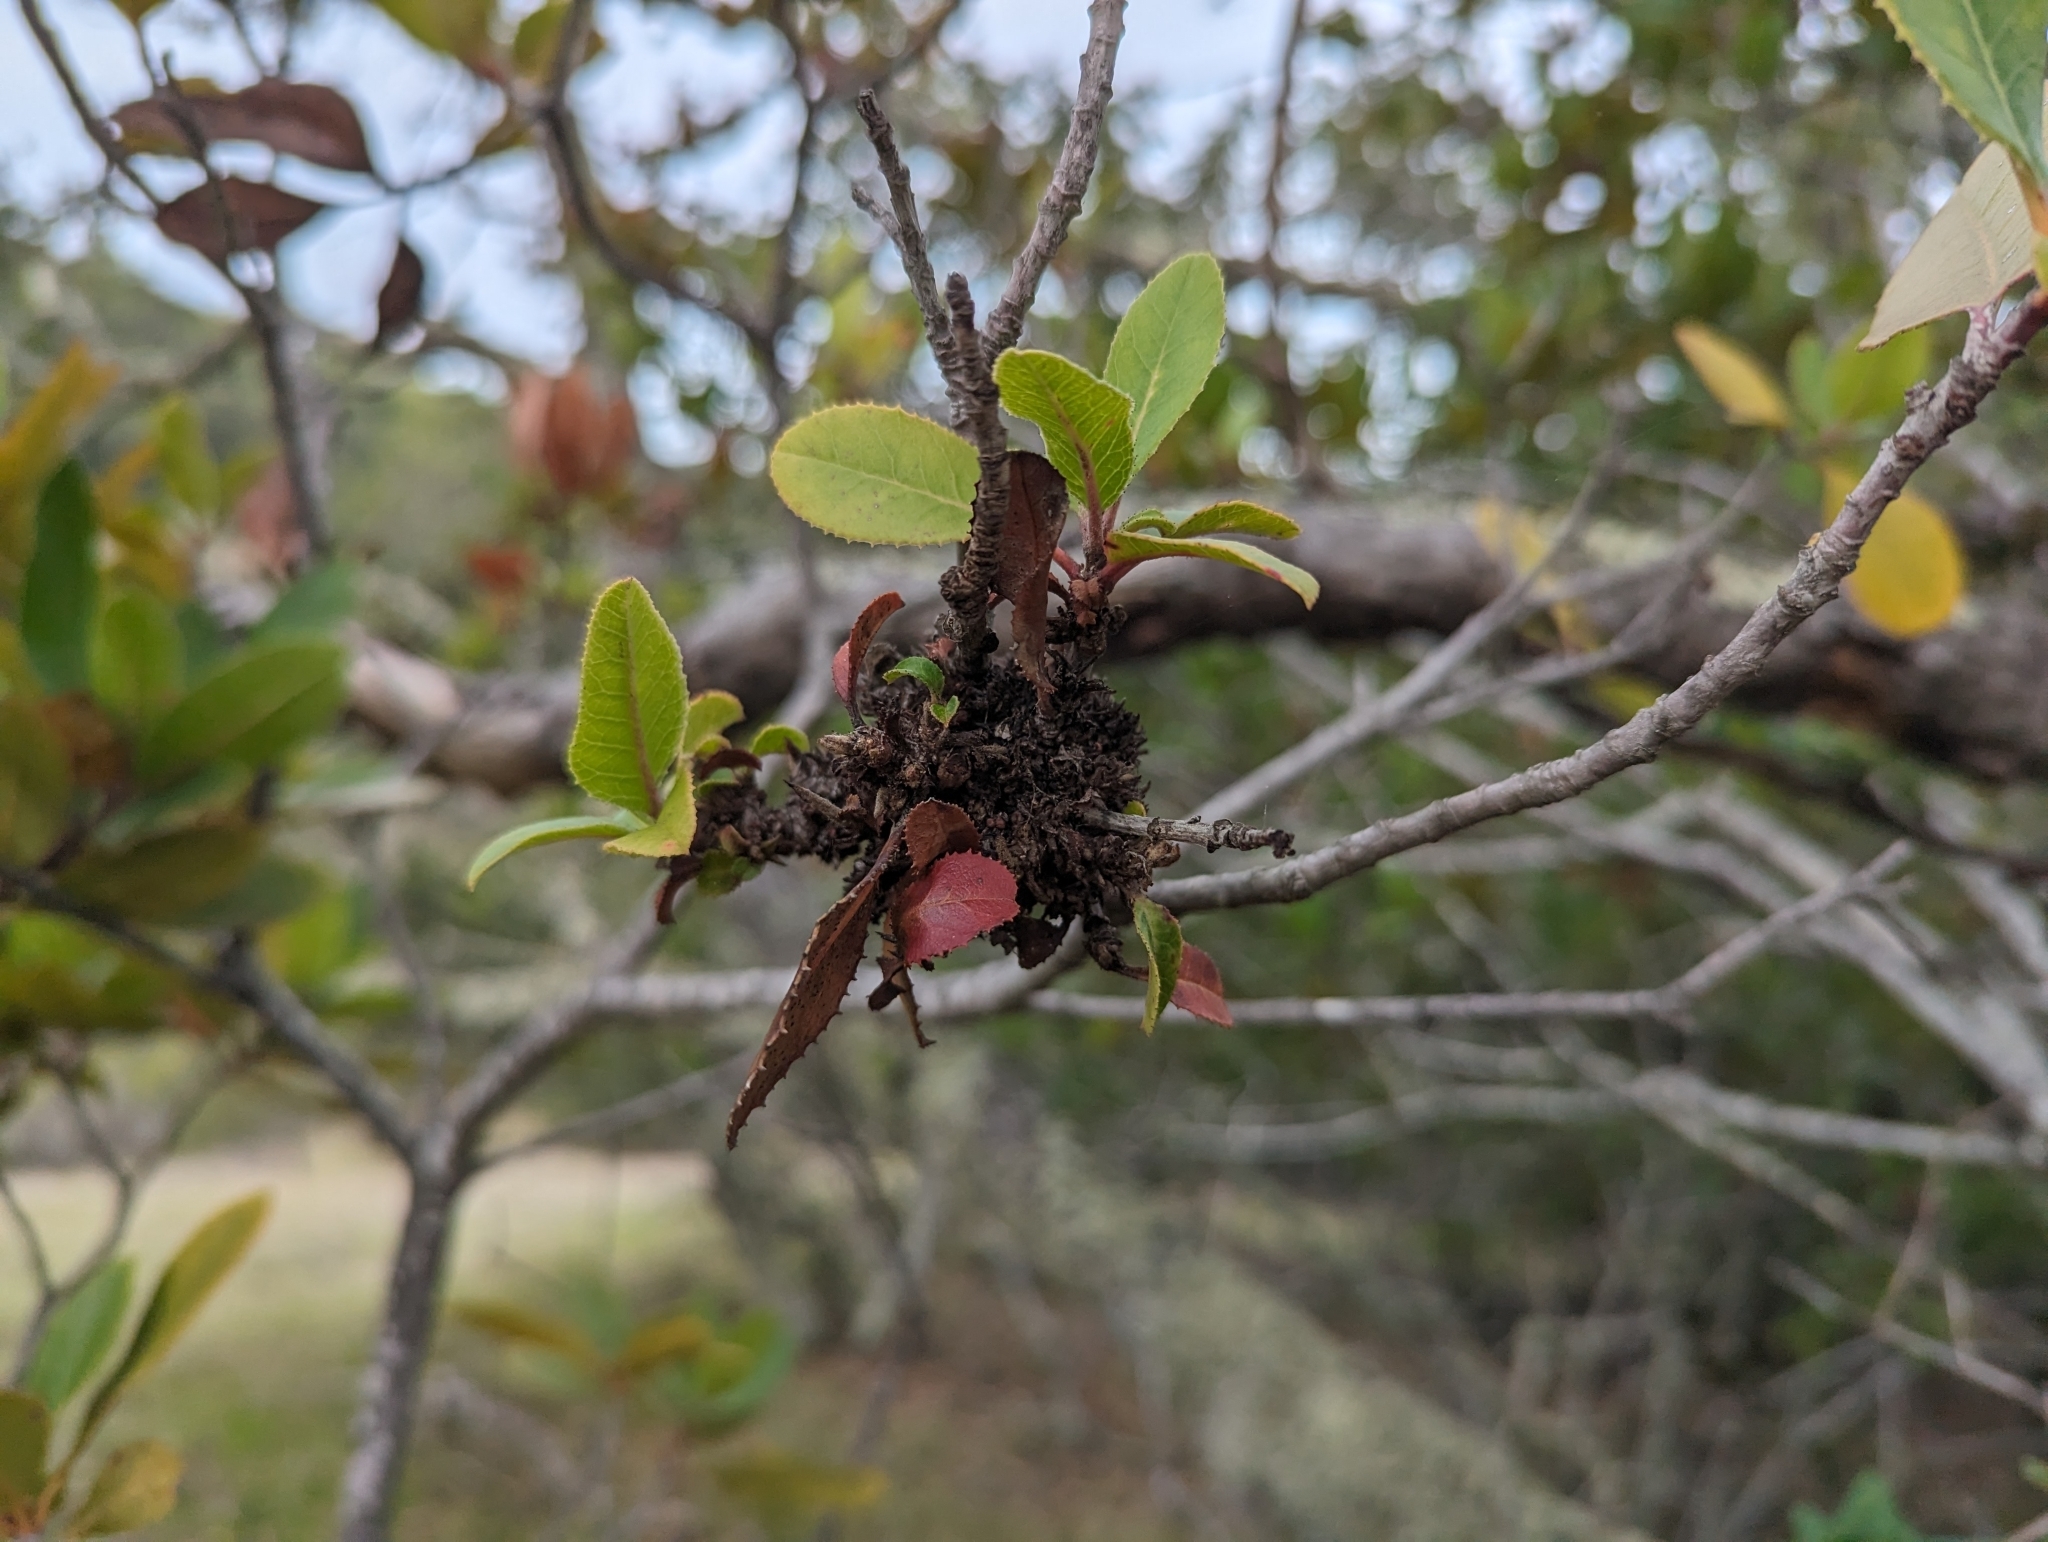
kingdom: Plantae
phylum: Tracheophyta
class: Magnoliopsida
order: Rosales
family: Rosaceae
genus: Heteromeles
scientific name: Heteromeles arbutifolia
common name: California-holly
